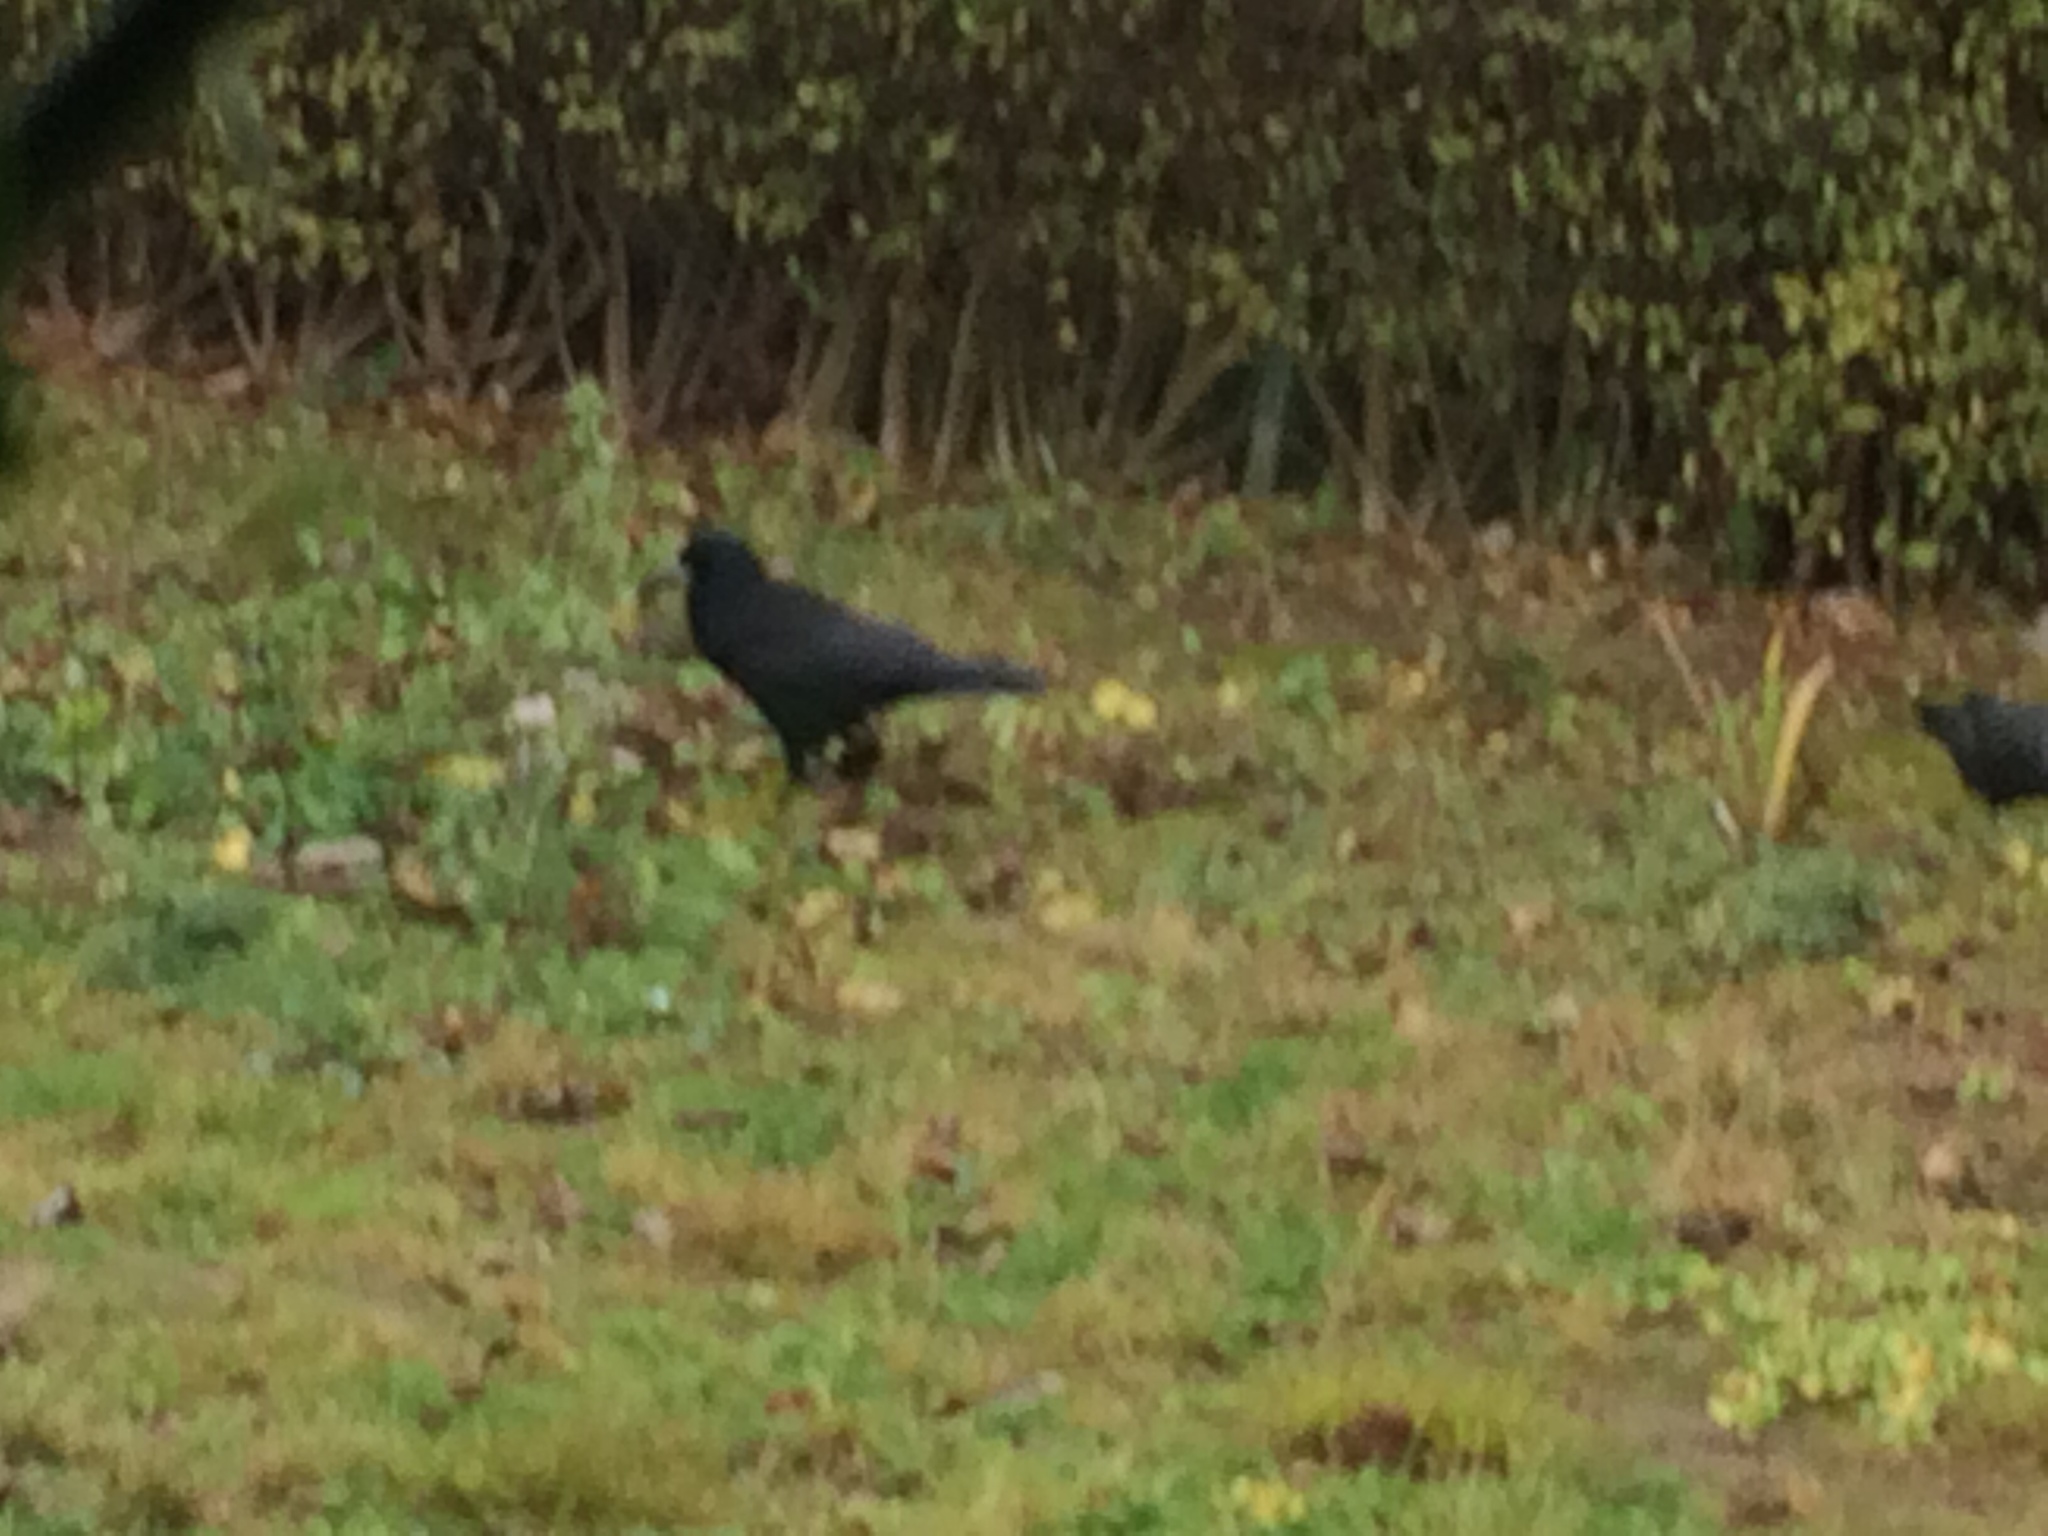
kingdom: Animalia
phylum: Chordata
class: Aves
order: Passeriformes
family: Corvidae
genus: Corvus
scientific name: Corvus frugilegus
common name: Rook
